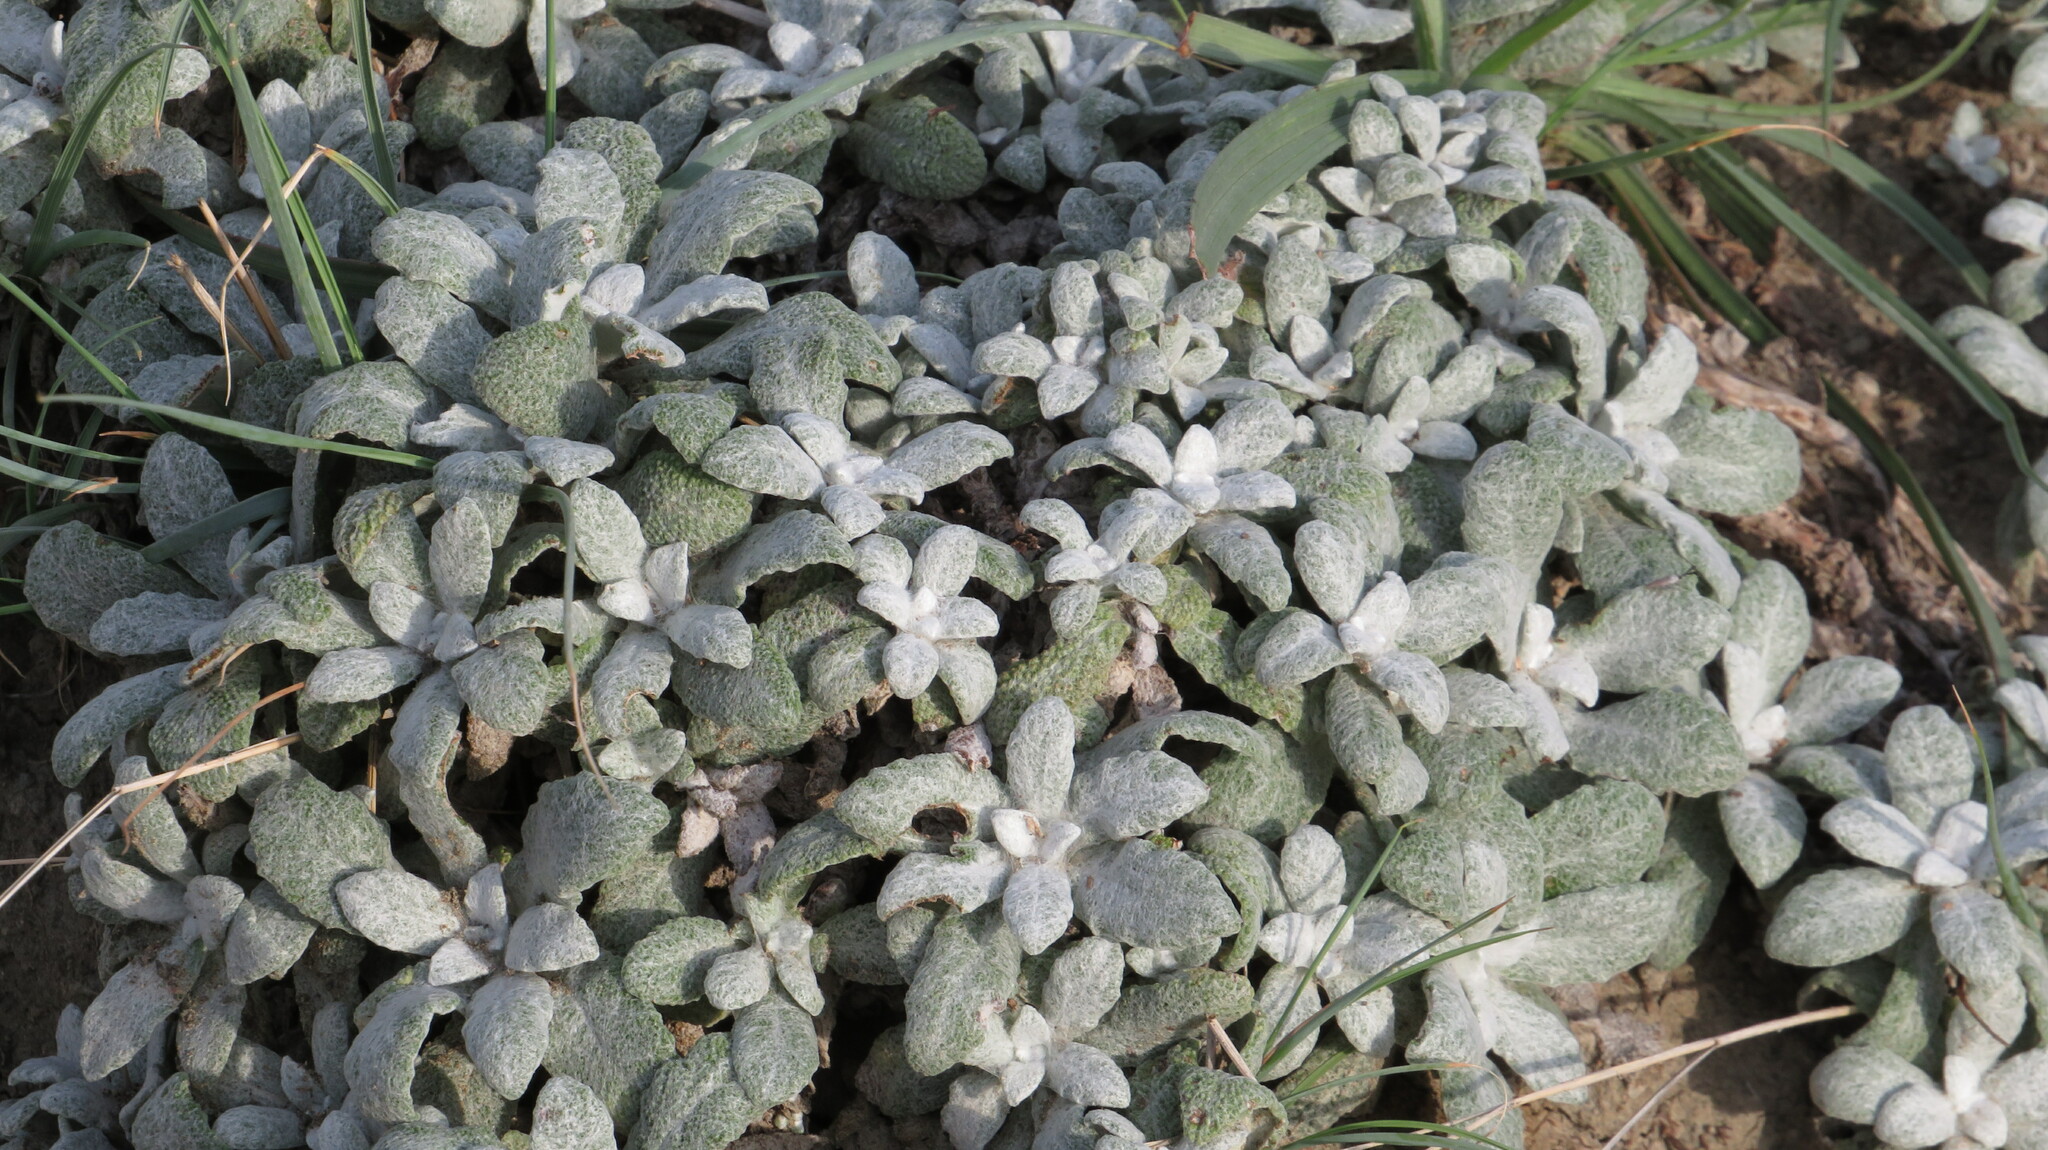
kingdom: Plantae
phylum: Tracheophyta
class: Magnoliopsida
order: Lamiales
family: Lamiaceae
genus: Salvia
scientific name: Salvia canescens
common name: Hoary salvia
